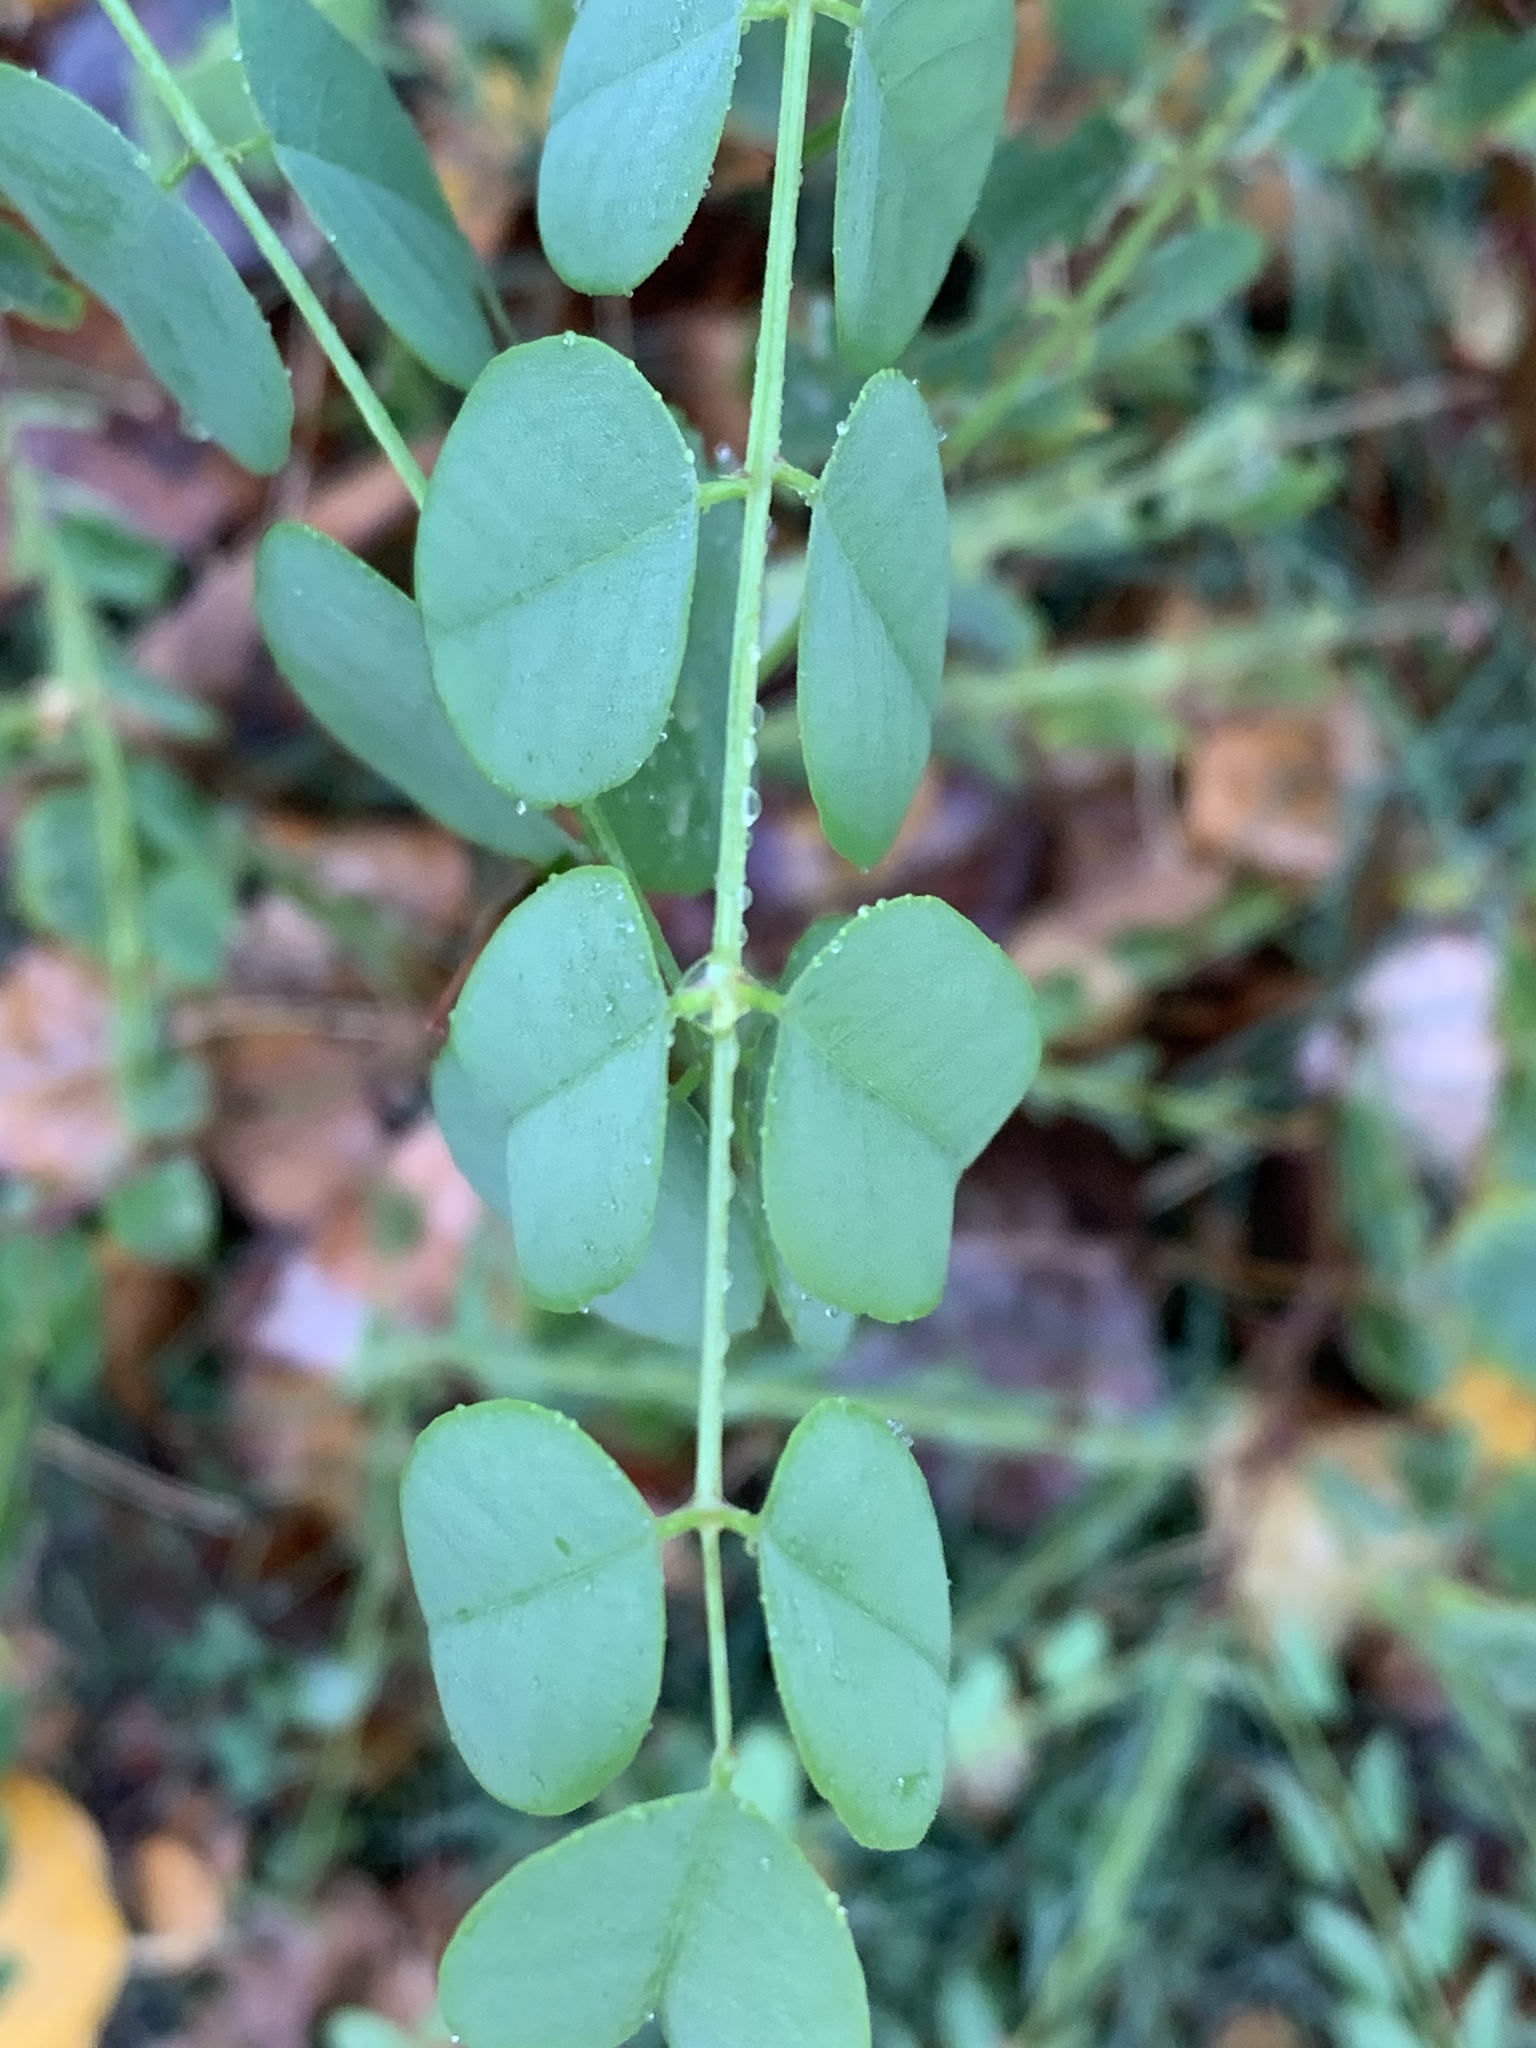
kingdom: Plantae
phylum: Tracheophyta
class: Magnoliopsida
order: Fabales
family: Fabaceae
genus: Robinia
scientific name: Robinia pseudoacacia
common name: Black locust
